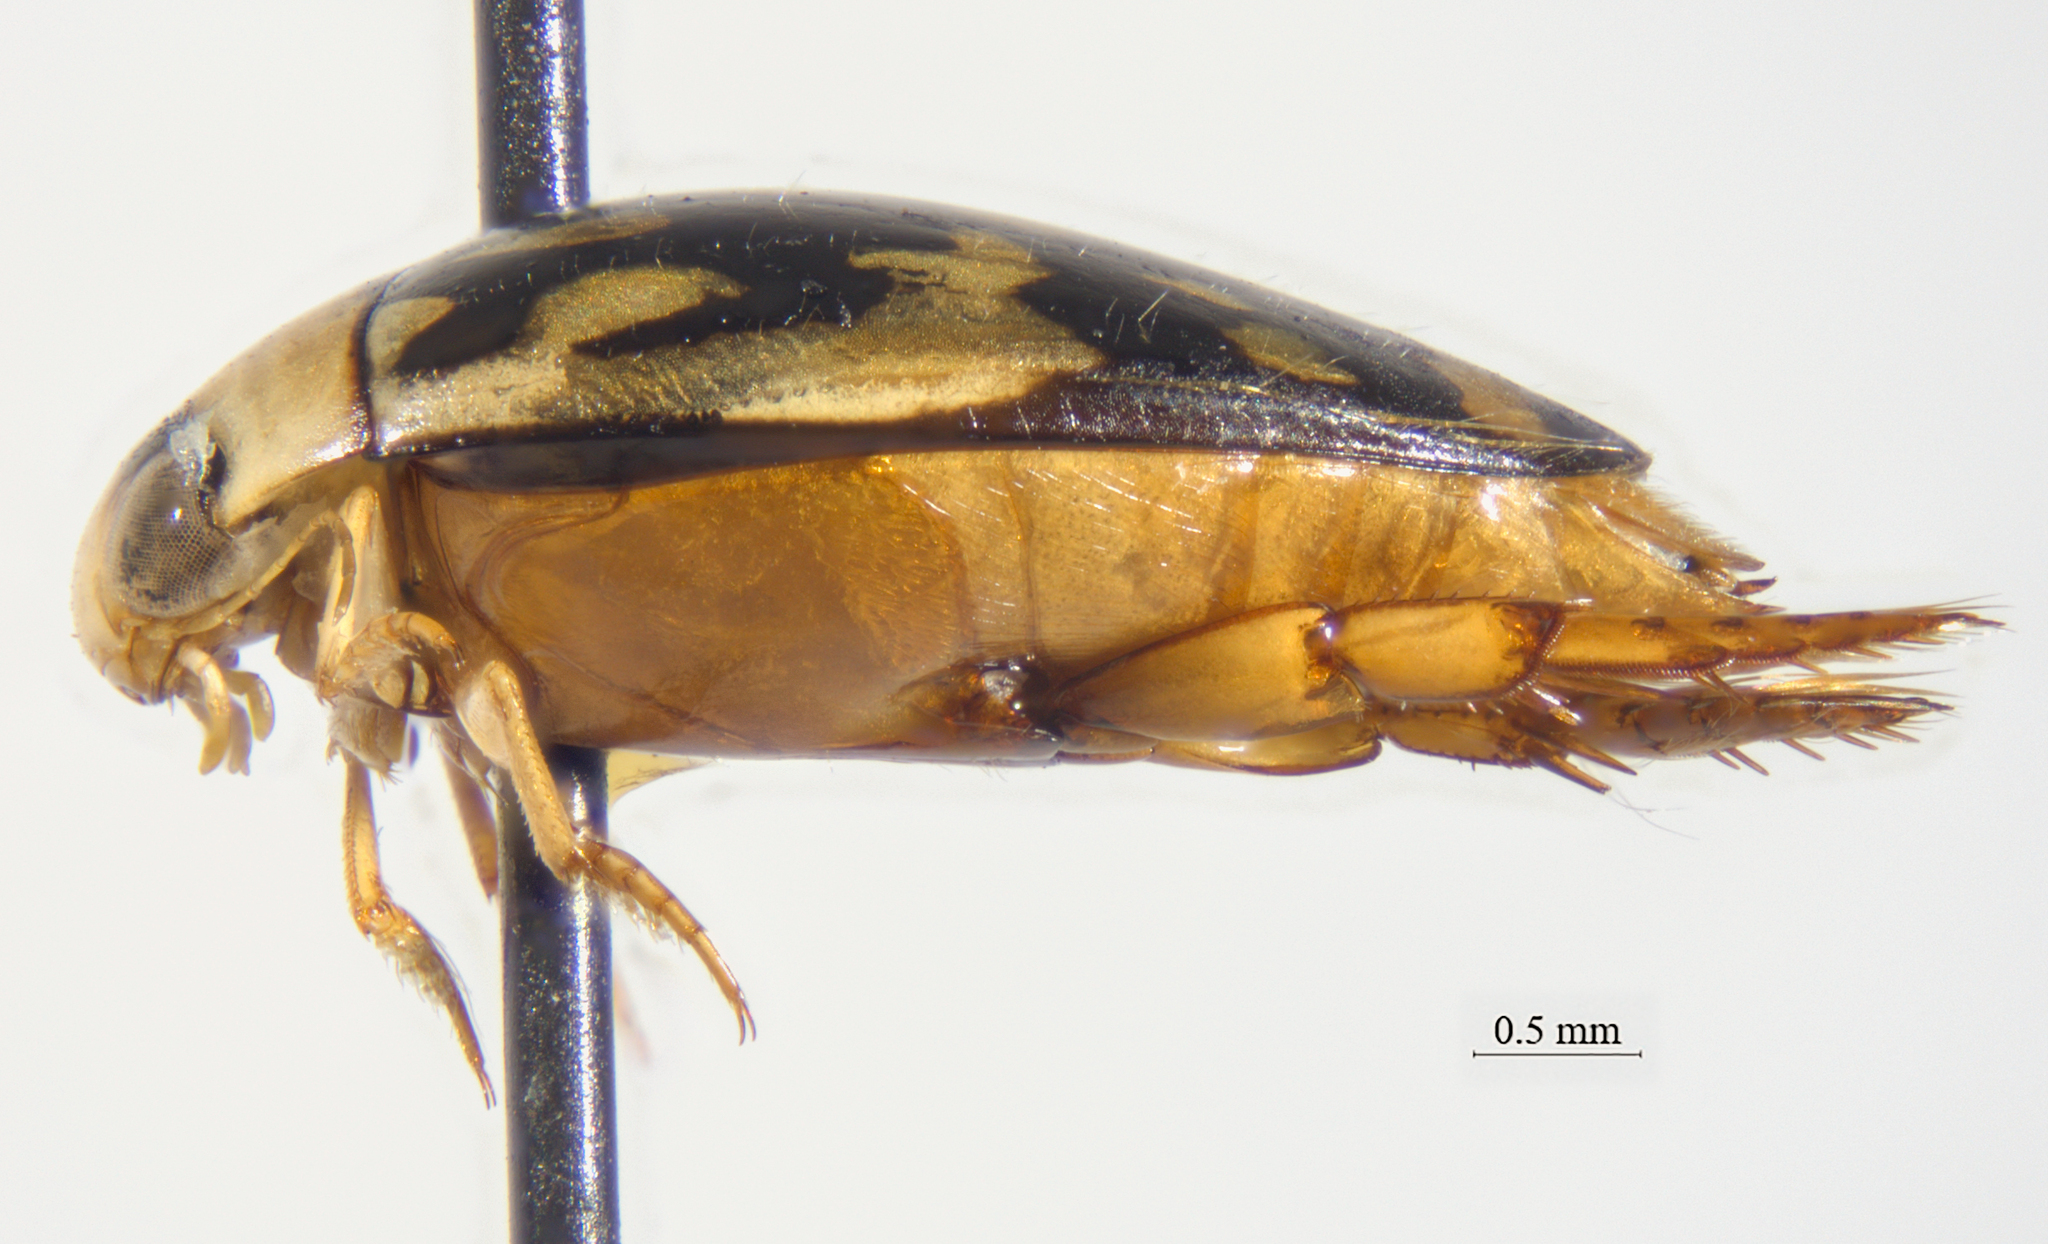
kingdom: Animalia
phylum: Arthropoda
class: Insecta
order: Coleoptera
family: Dytiscidae
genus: Laccophilus
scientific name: Laccophilus pictus
